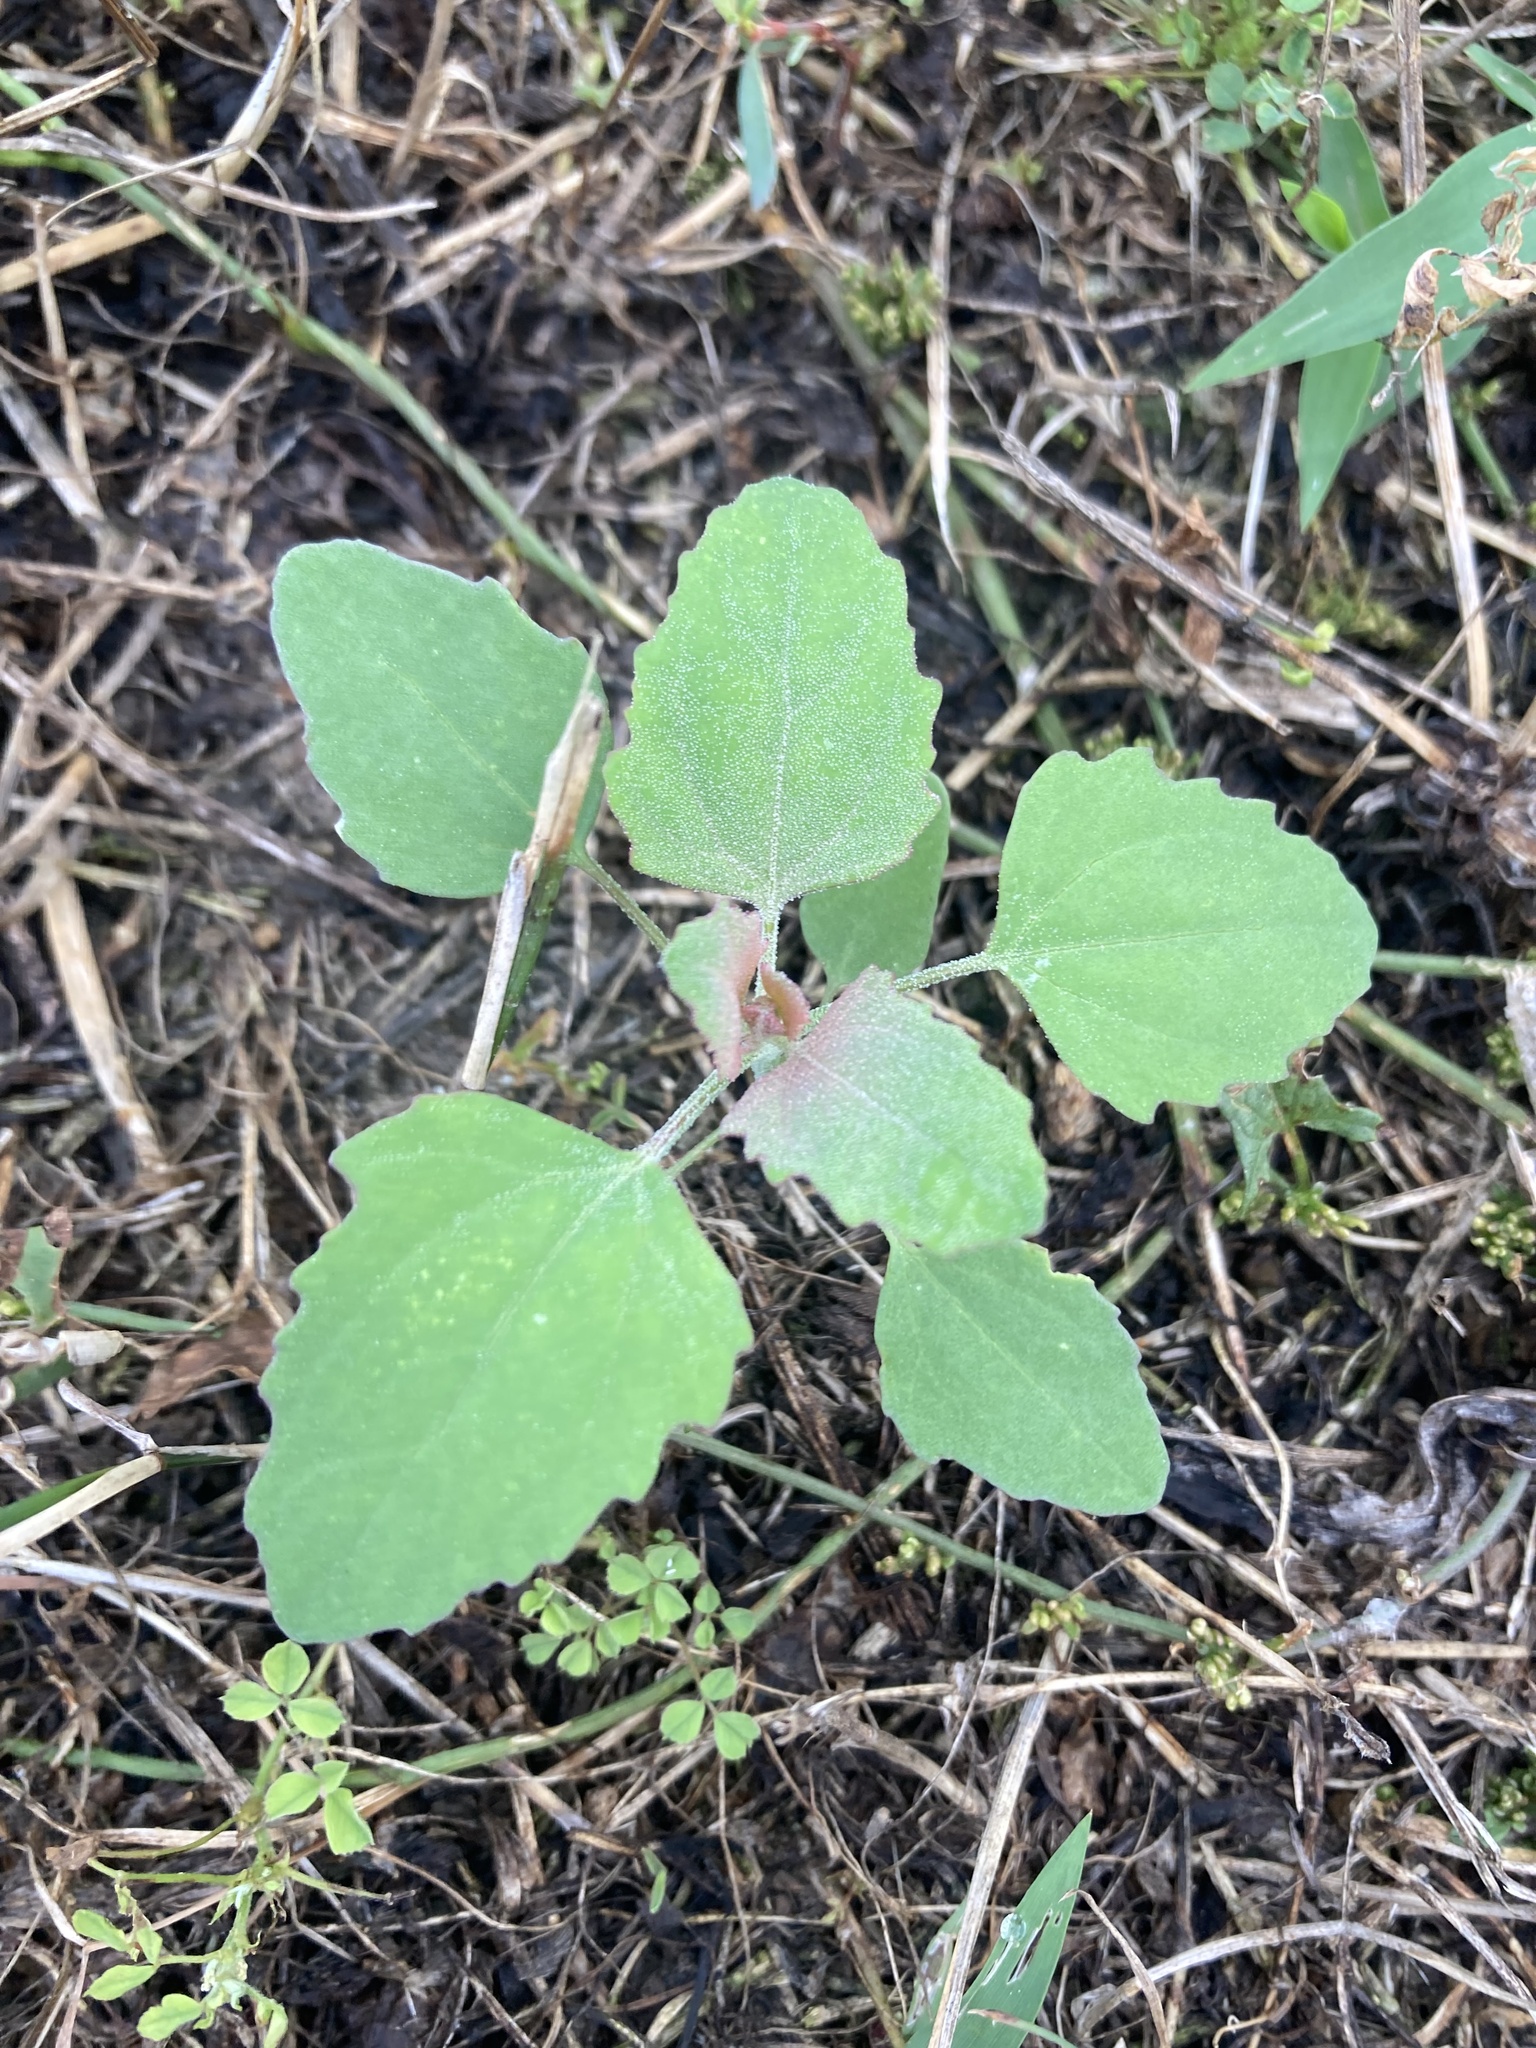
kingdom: Plantae
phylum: Tracheophyta
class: Magnoliopsida
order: Caryophyllales
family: Amaranthaceae
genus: Chenopodium
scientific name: Chenopodium album
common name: Fat-hen
